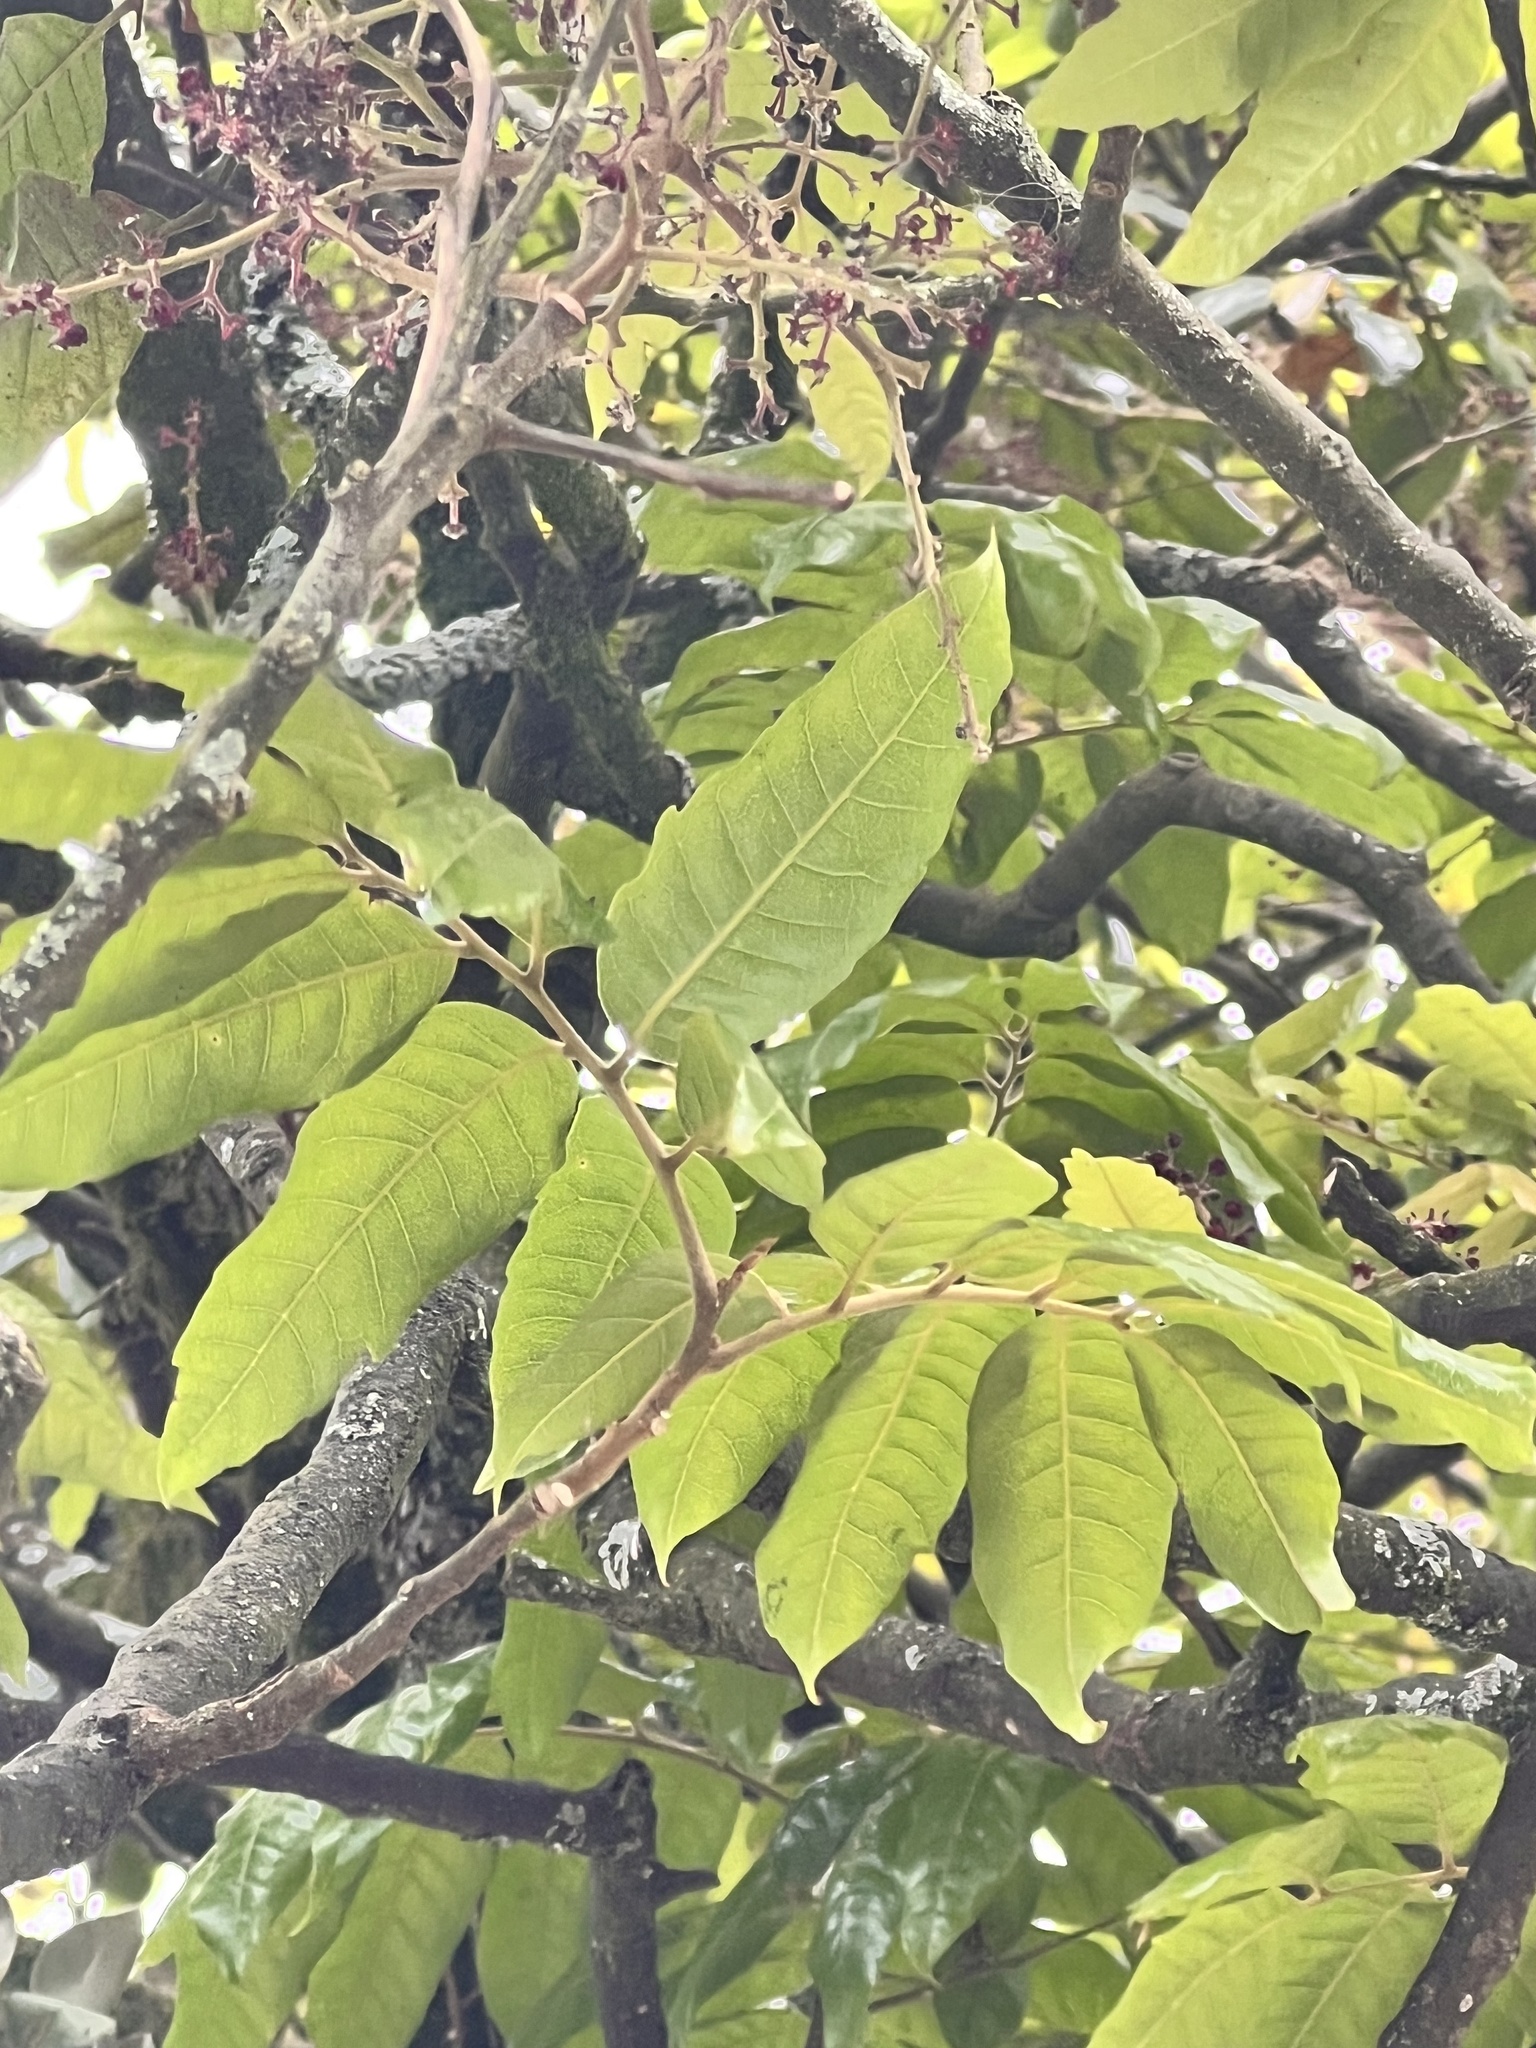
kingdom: Plantae
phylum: Tracheophyta
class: Magnoliopsida
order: Sapindales
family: Sapindaceae
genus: Alectryon
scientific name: Alectryon excelsus
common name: Three kings titoki
